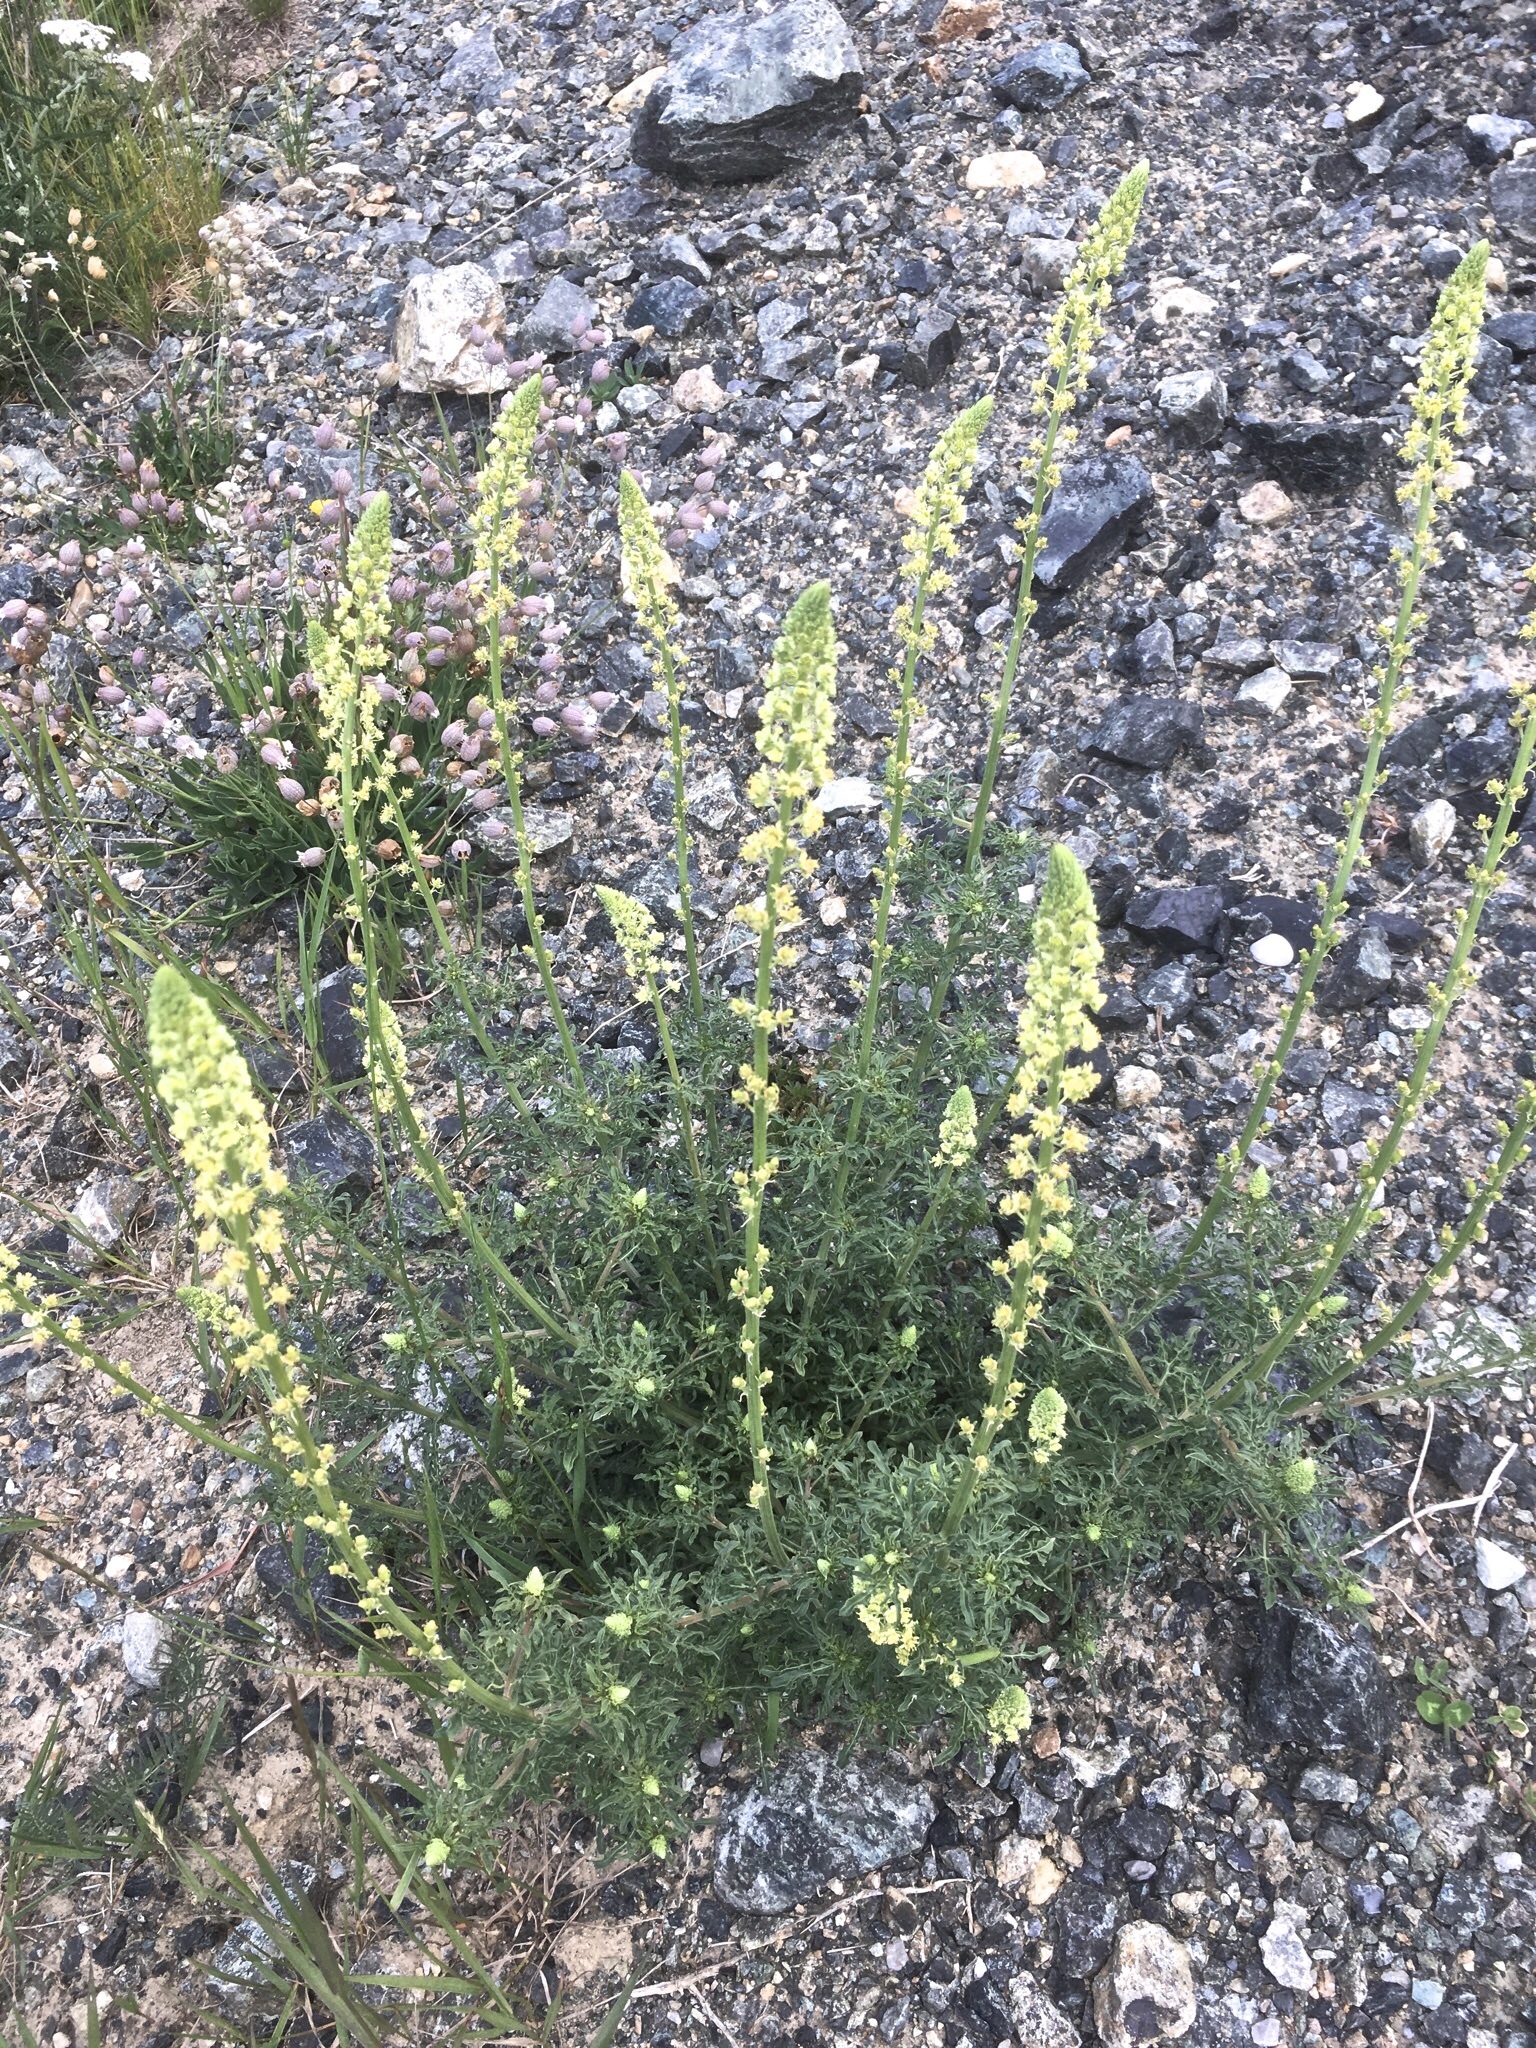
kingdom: Plantae
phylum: Tracheophyta
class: Magnoliopsida
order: Brassicales
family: Resedaceae
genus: Reseda
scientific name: Reseda lutea
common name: Wild mignonette
